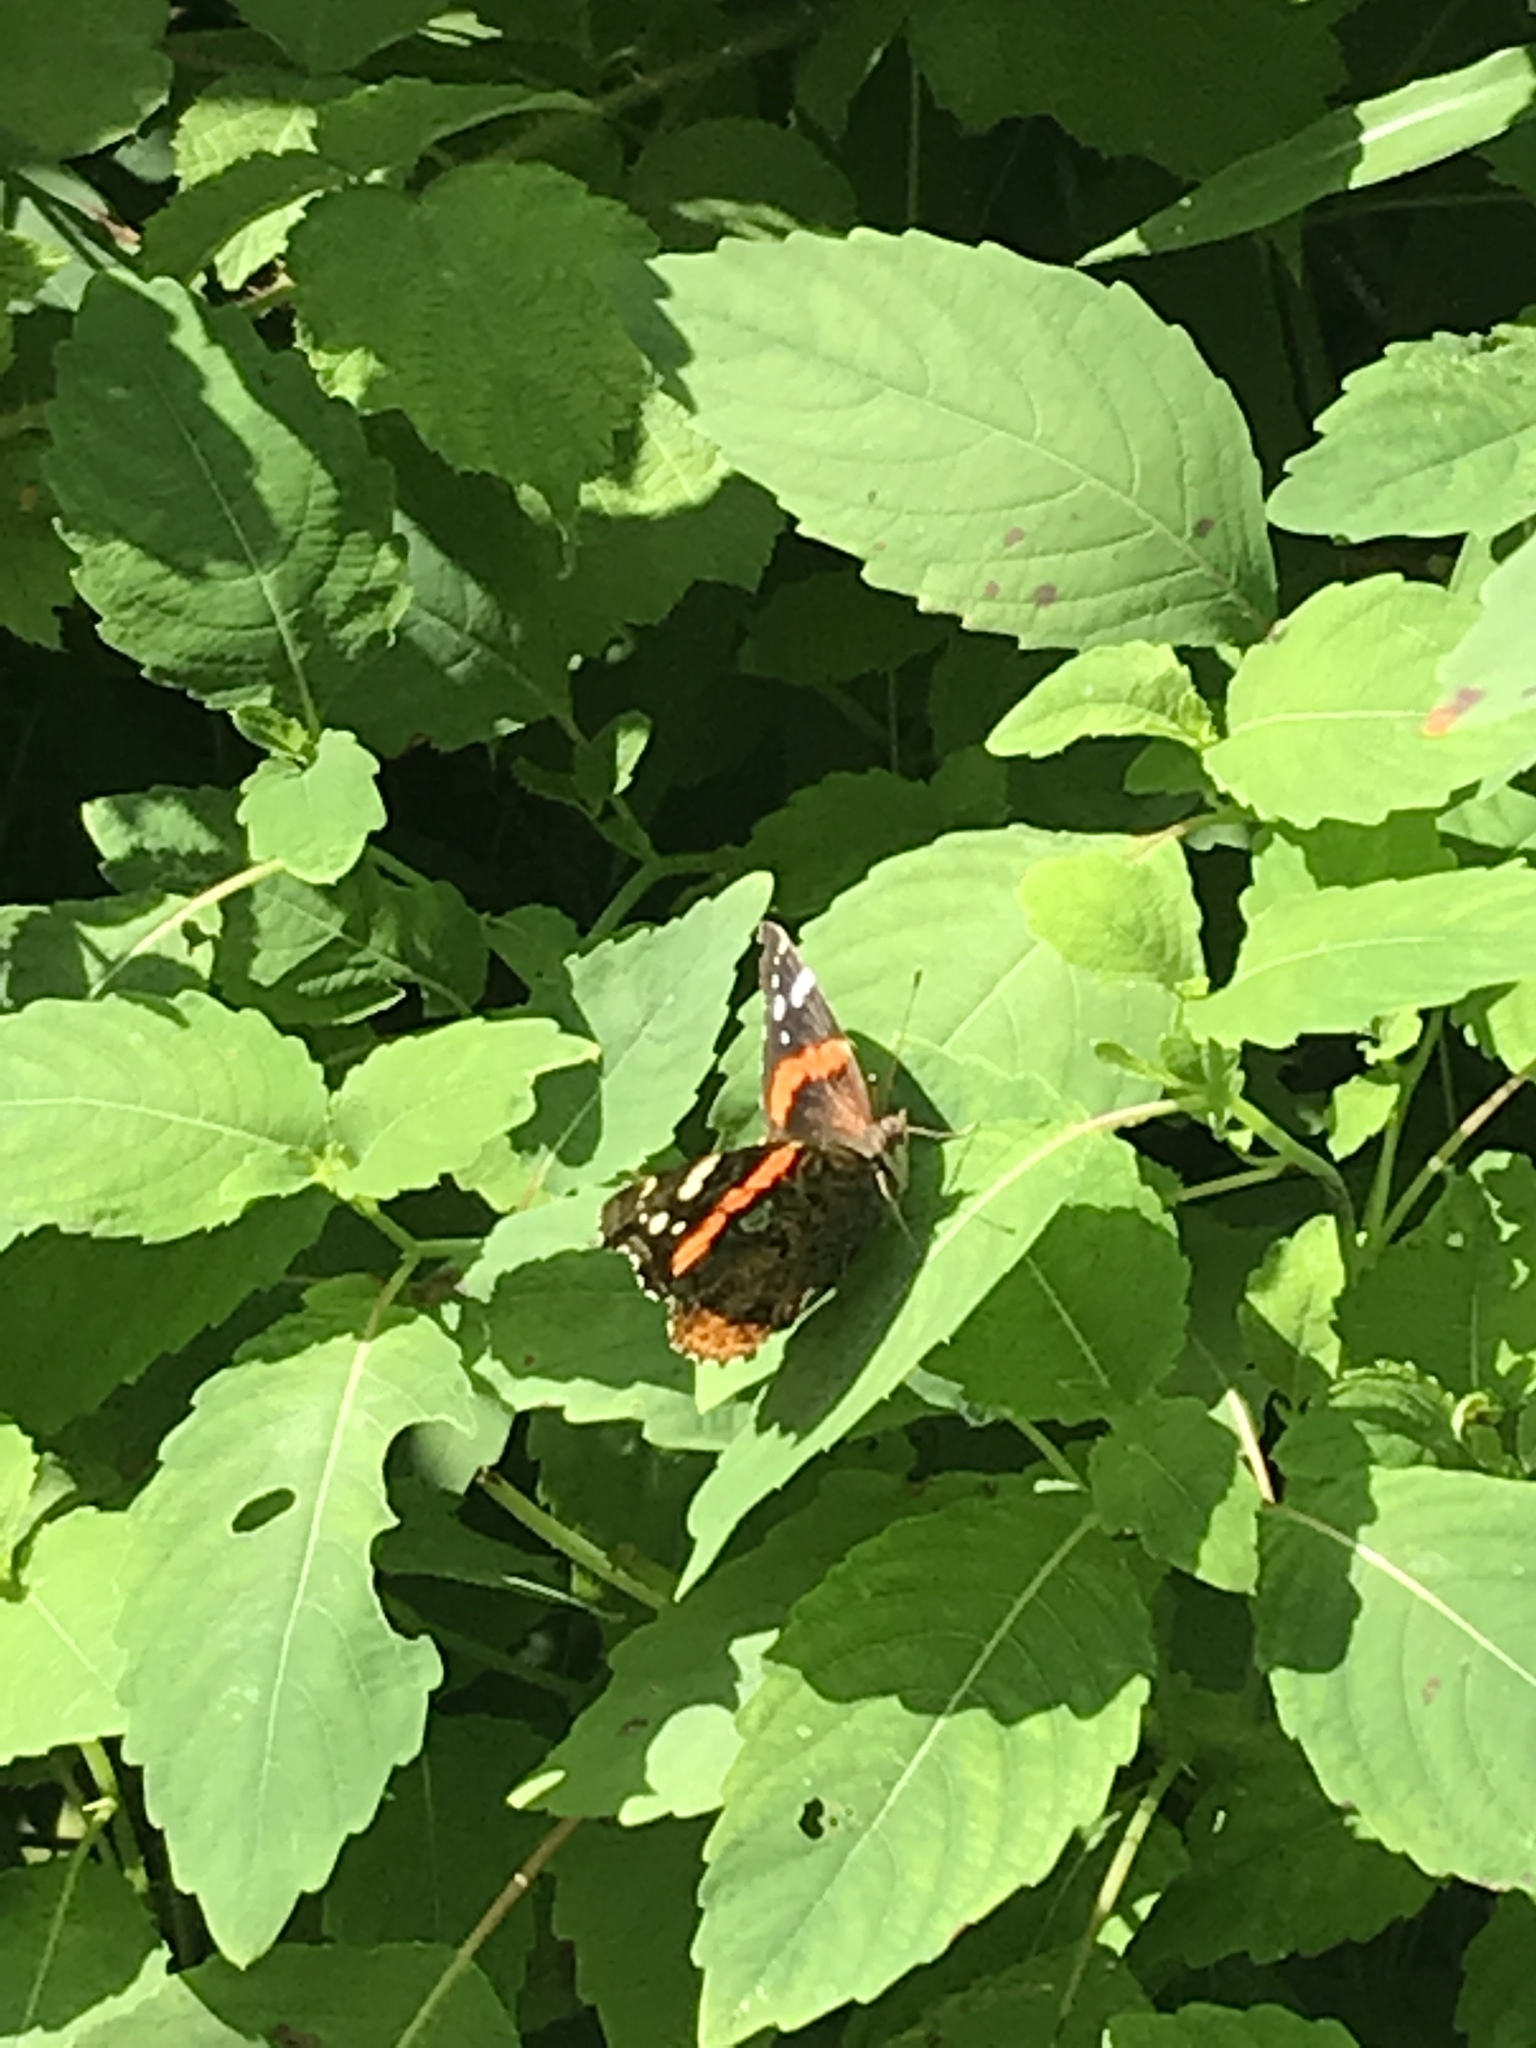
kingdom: Animalia
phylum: Arthropoda
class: Insecta
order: Lepidoptera
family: Nymphalidae
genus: Vanessa
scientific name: Vanessa atalanta
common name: Red admiral
